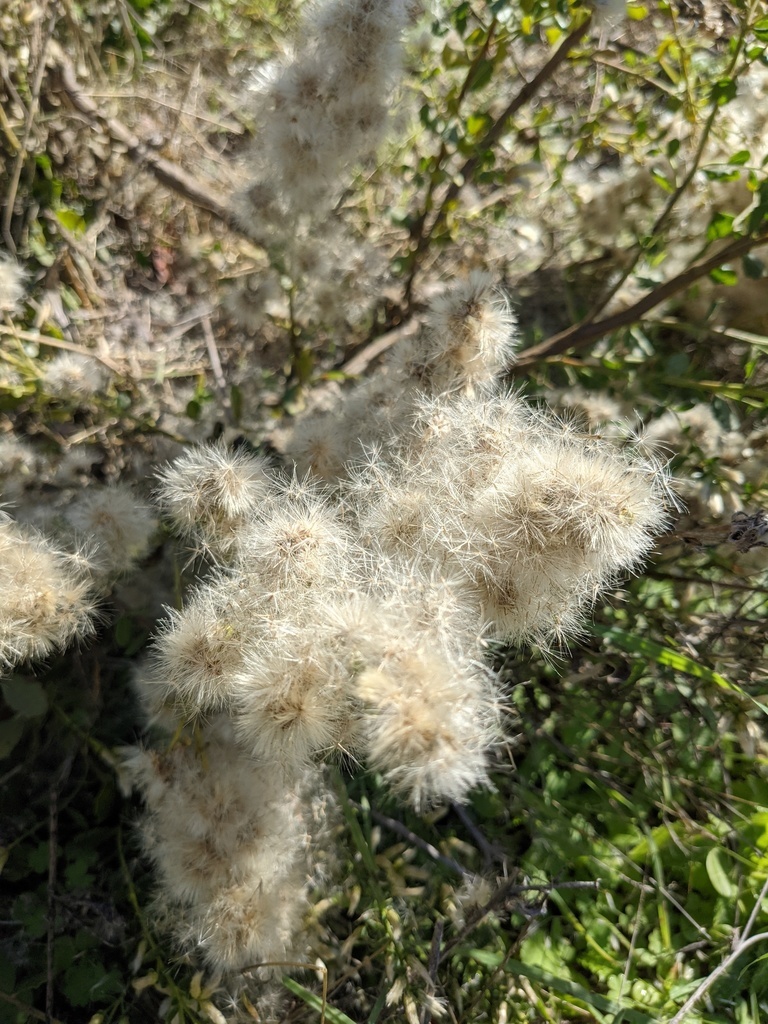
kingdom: Plantae
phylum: Tracheophyta
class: Magnoliopsida
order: Asterales
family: Asteraceae
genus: Baccharis
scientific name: Baccharis pilularis
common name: Coyotebrush
